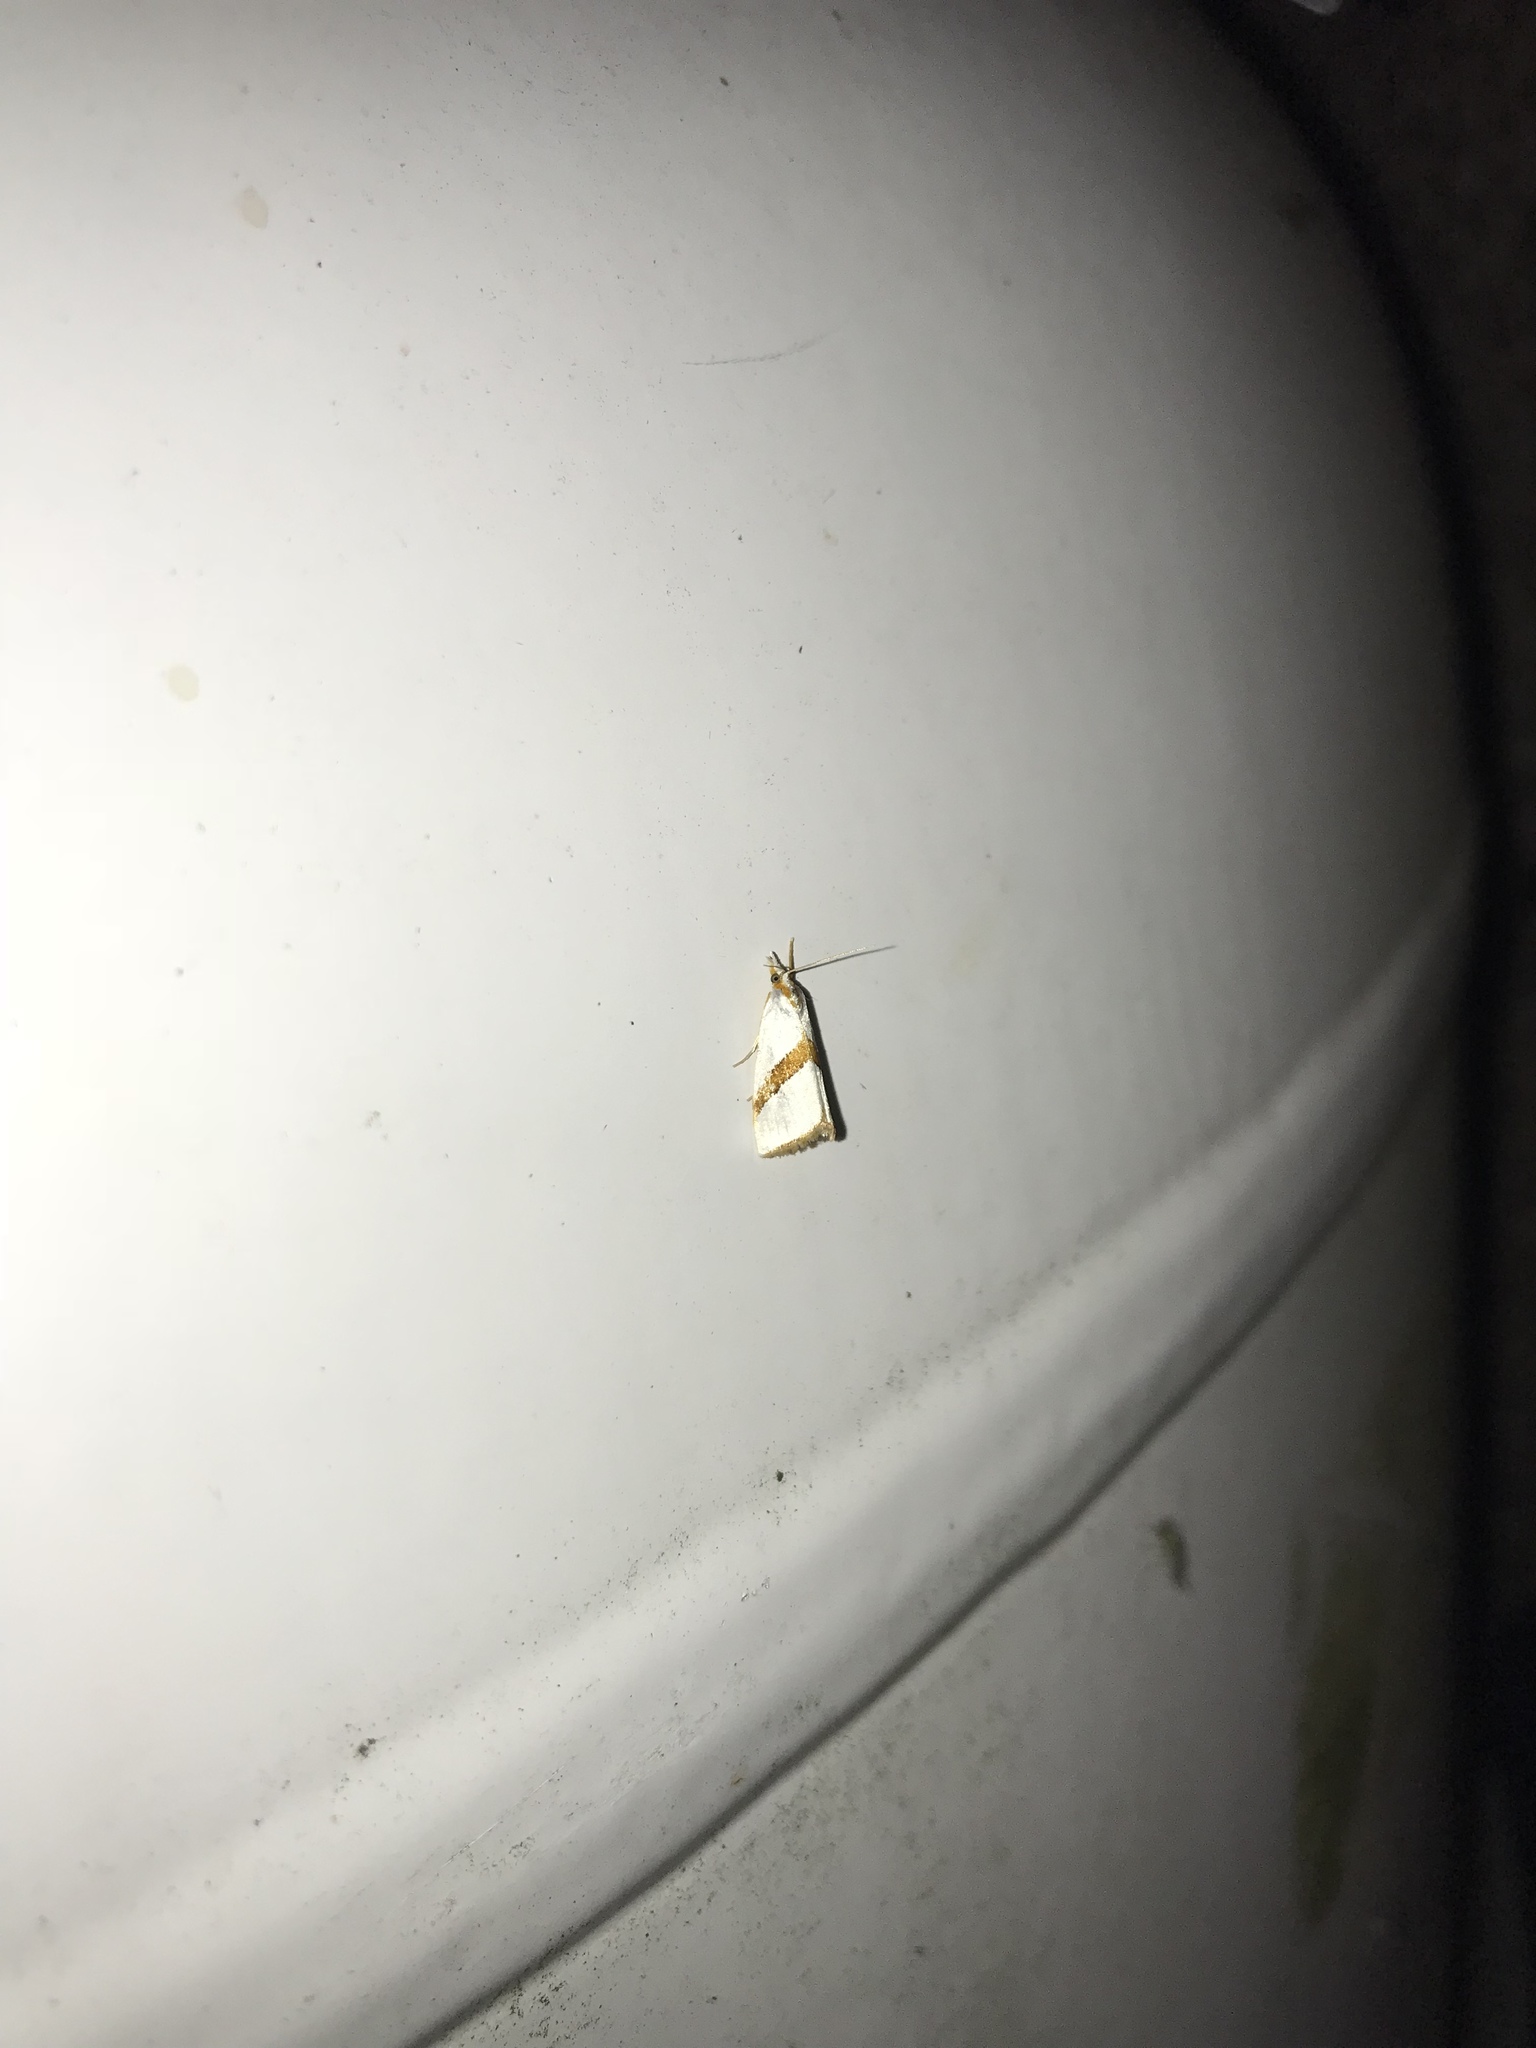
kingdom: Animalia
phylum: Arthropoda
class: Insecta
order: Lepidoptera
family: Crambidae
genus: Vaxi
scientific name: Vaxi critica
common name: Straight-lined vaxi moth
